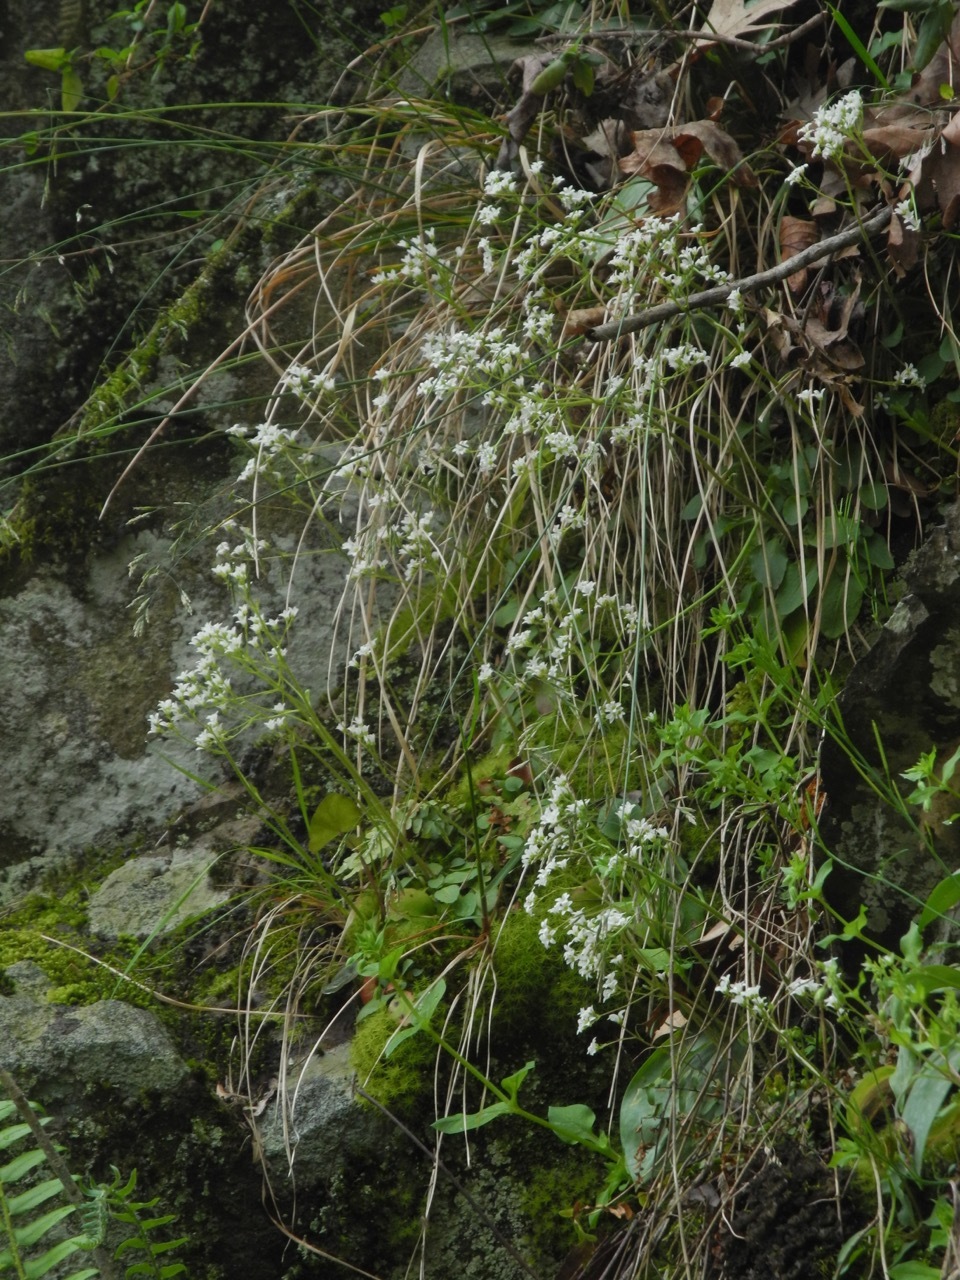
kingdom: Plantae
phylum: Tracheophyta
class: Magnoliopsida
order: Saxifragales
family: Saxifragaceae
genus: Micranthes
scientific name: Micranthes virginiensis
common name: Early saxifrage
